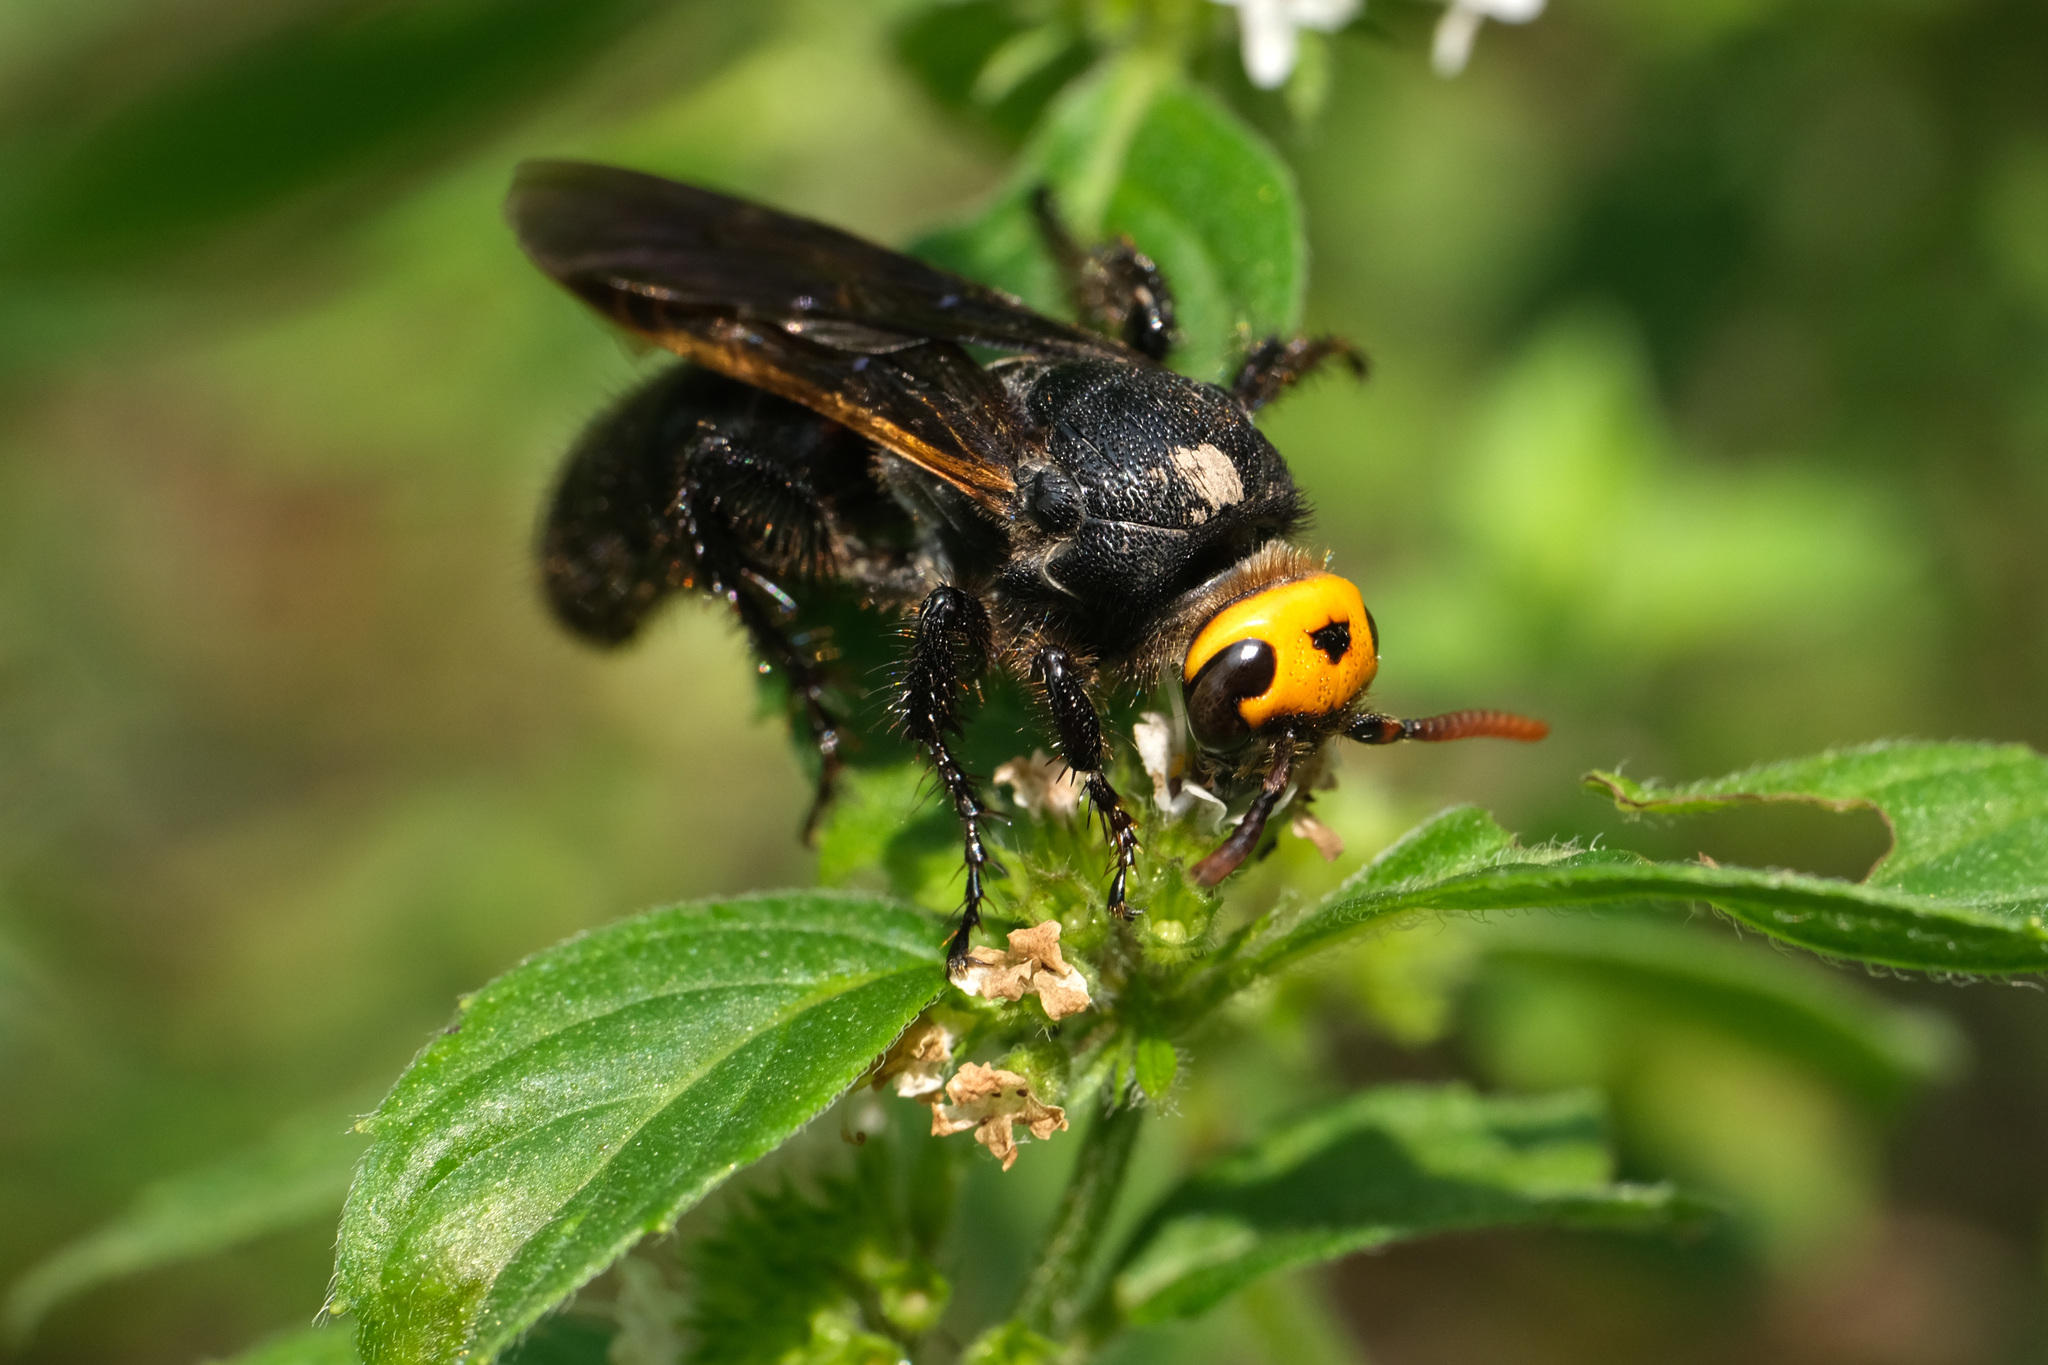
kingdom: Animalia
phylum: Arthropoda
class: Insecta
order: Hymenoptera
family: Scoliidae
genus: Scolia
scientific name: Scolia superciliaris
